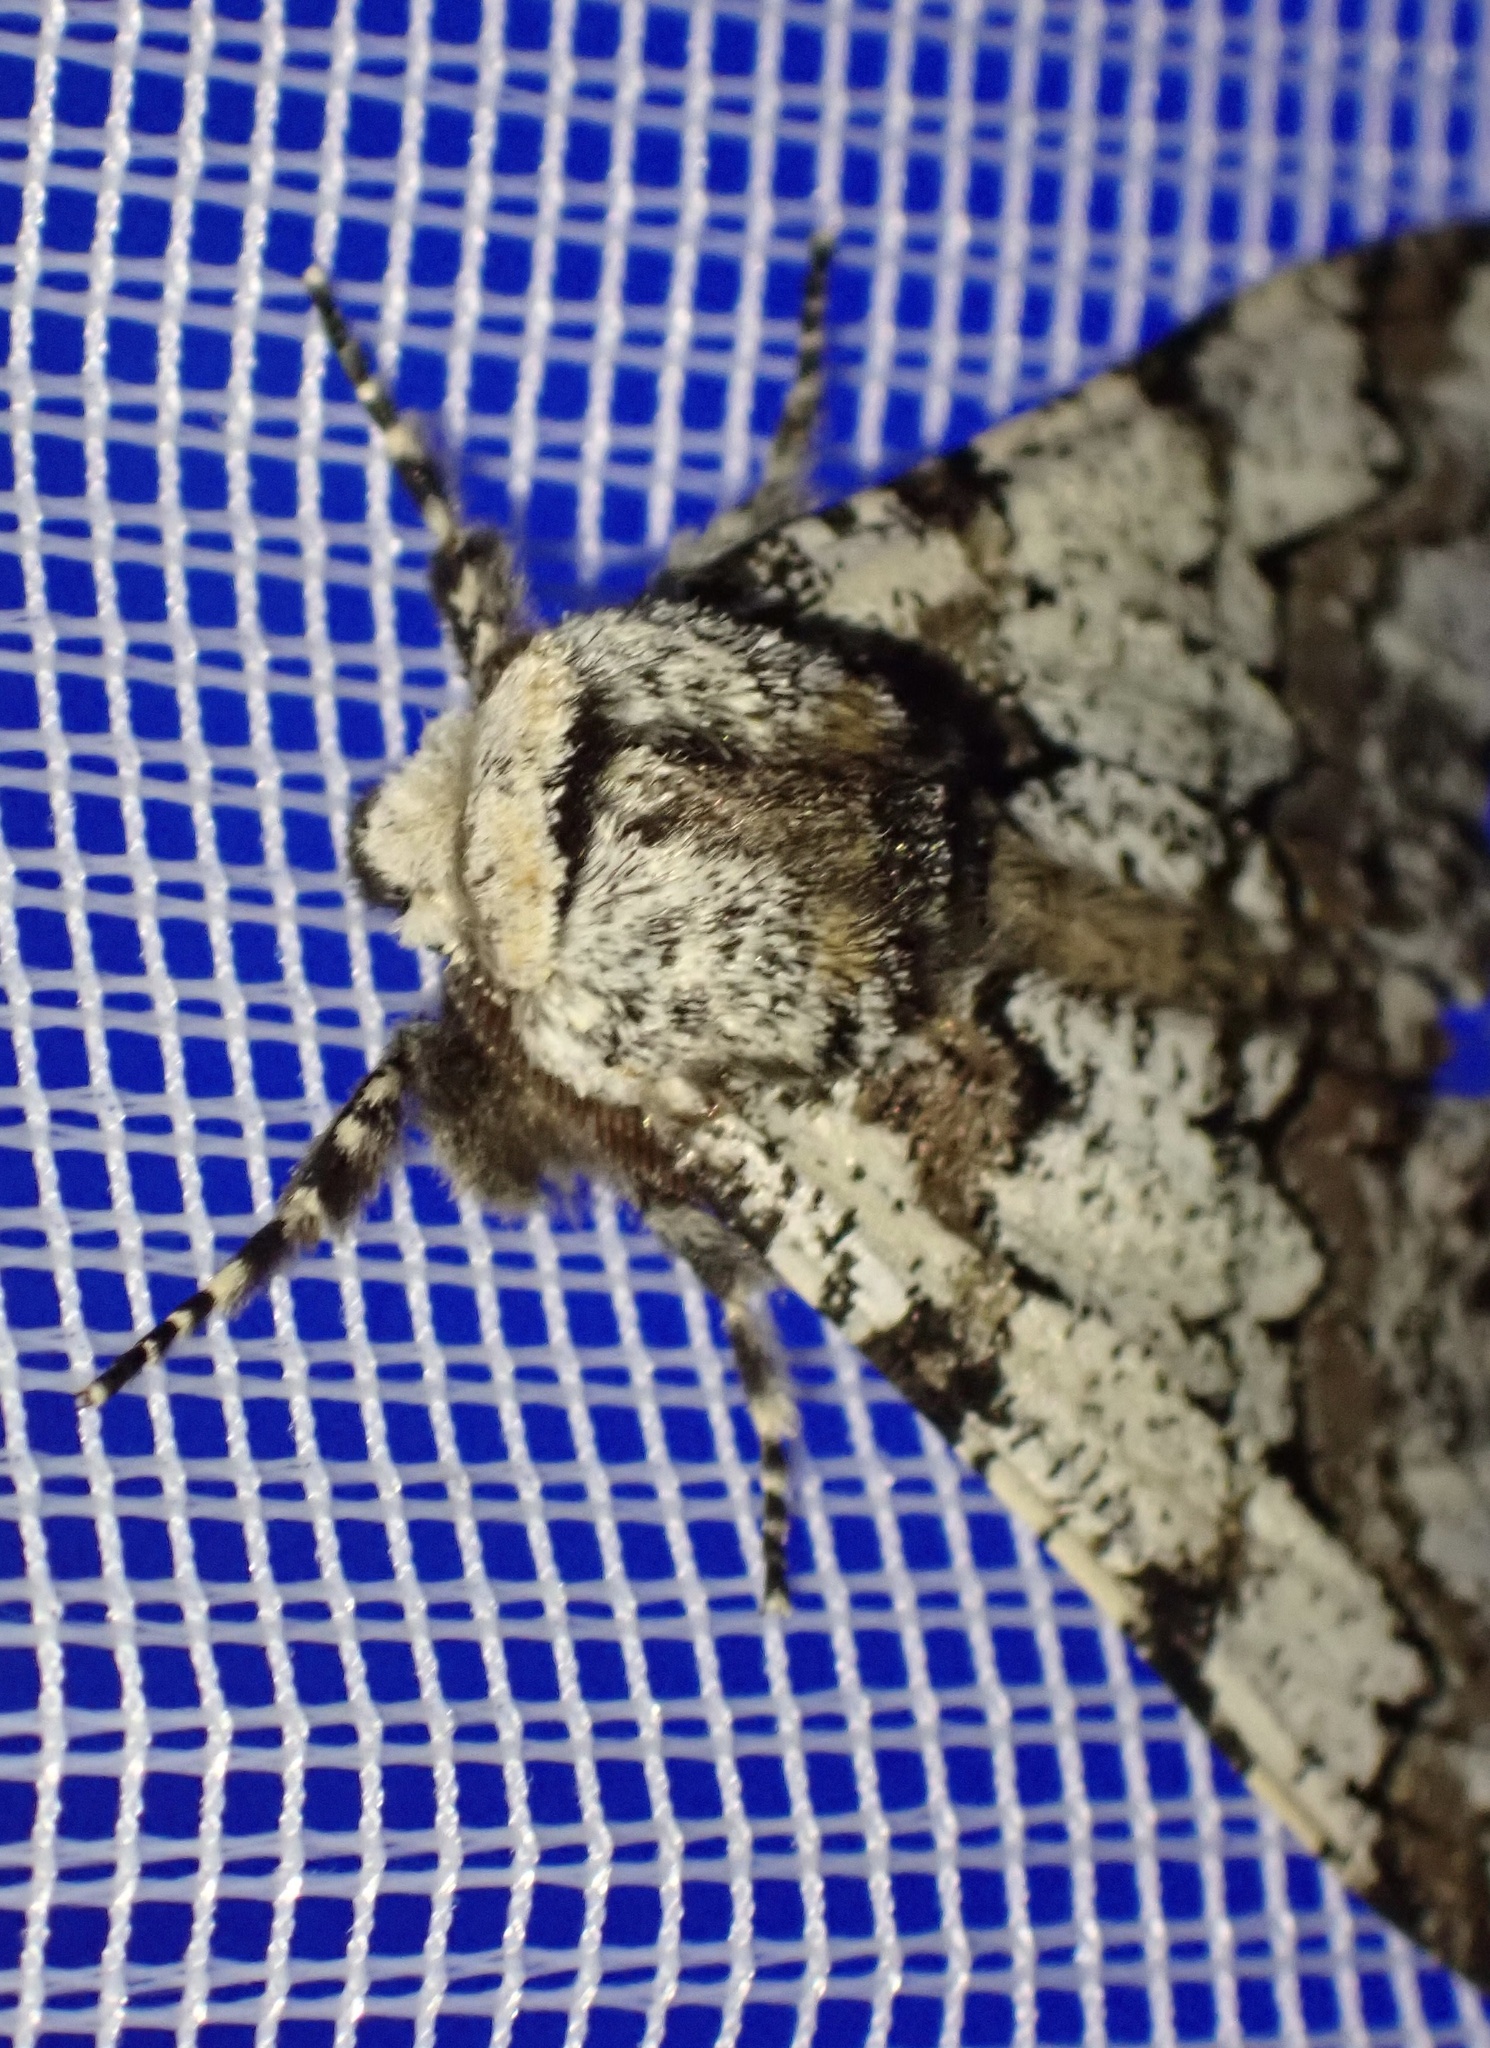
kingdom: Animalia
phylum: Arthropoda
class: Insecta
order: Lepidoptera
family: Geometridae
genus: Biston
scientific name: Biston strataria
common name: Oak beauty
